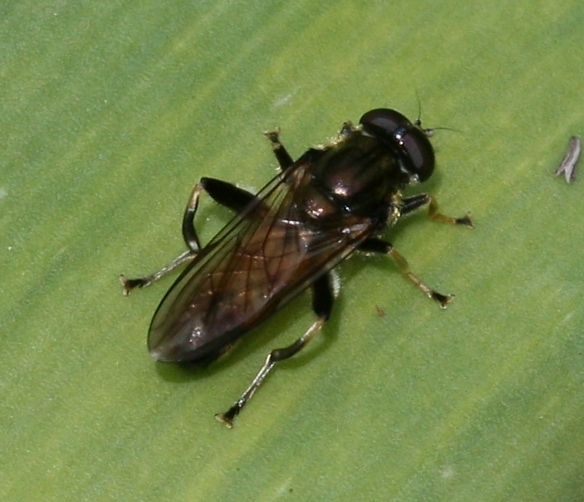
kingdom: Animalia
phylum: Arthropoda
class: Insecta
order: Diptera
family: Syrphidae
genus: Xylota
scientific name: Xylota segnis
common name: Brown-toed forest fly
